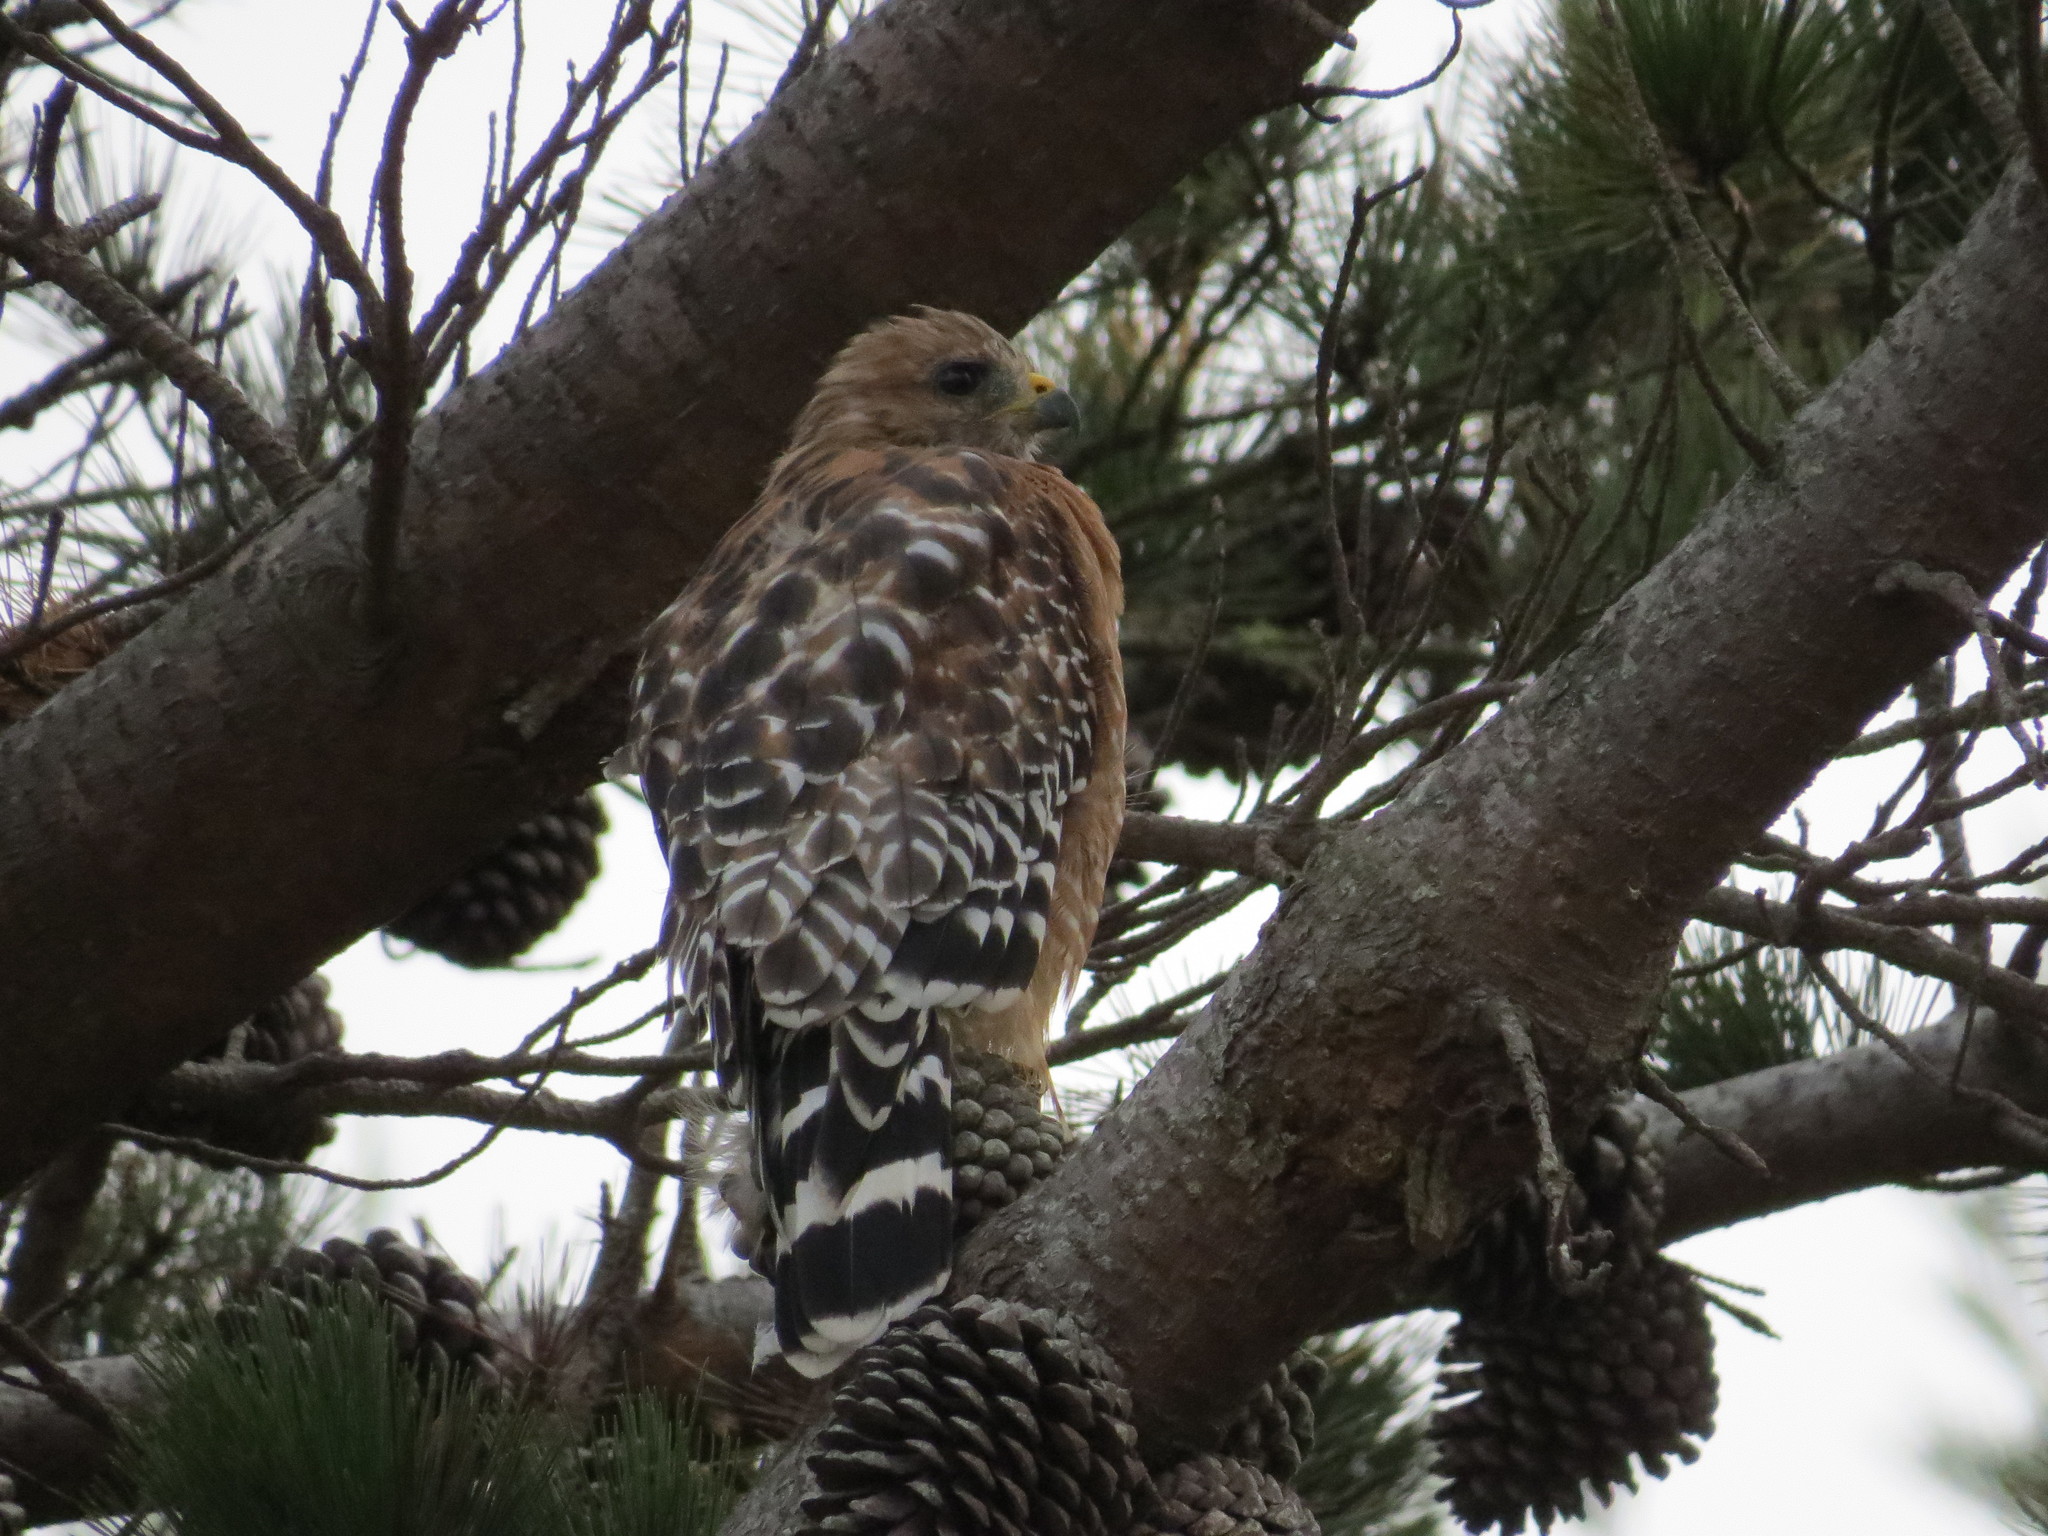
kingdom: Animalia
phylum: Chordata
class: Aves
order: Accipitriformes
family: Accipitridae
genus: Buteo
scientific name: Buteo lineatus
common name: Red-shouldered hawk
